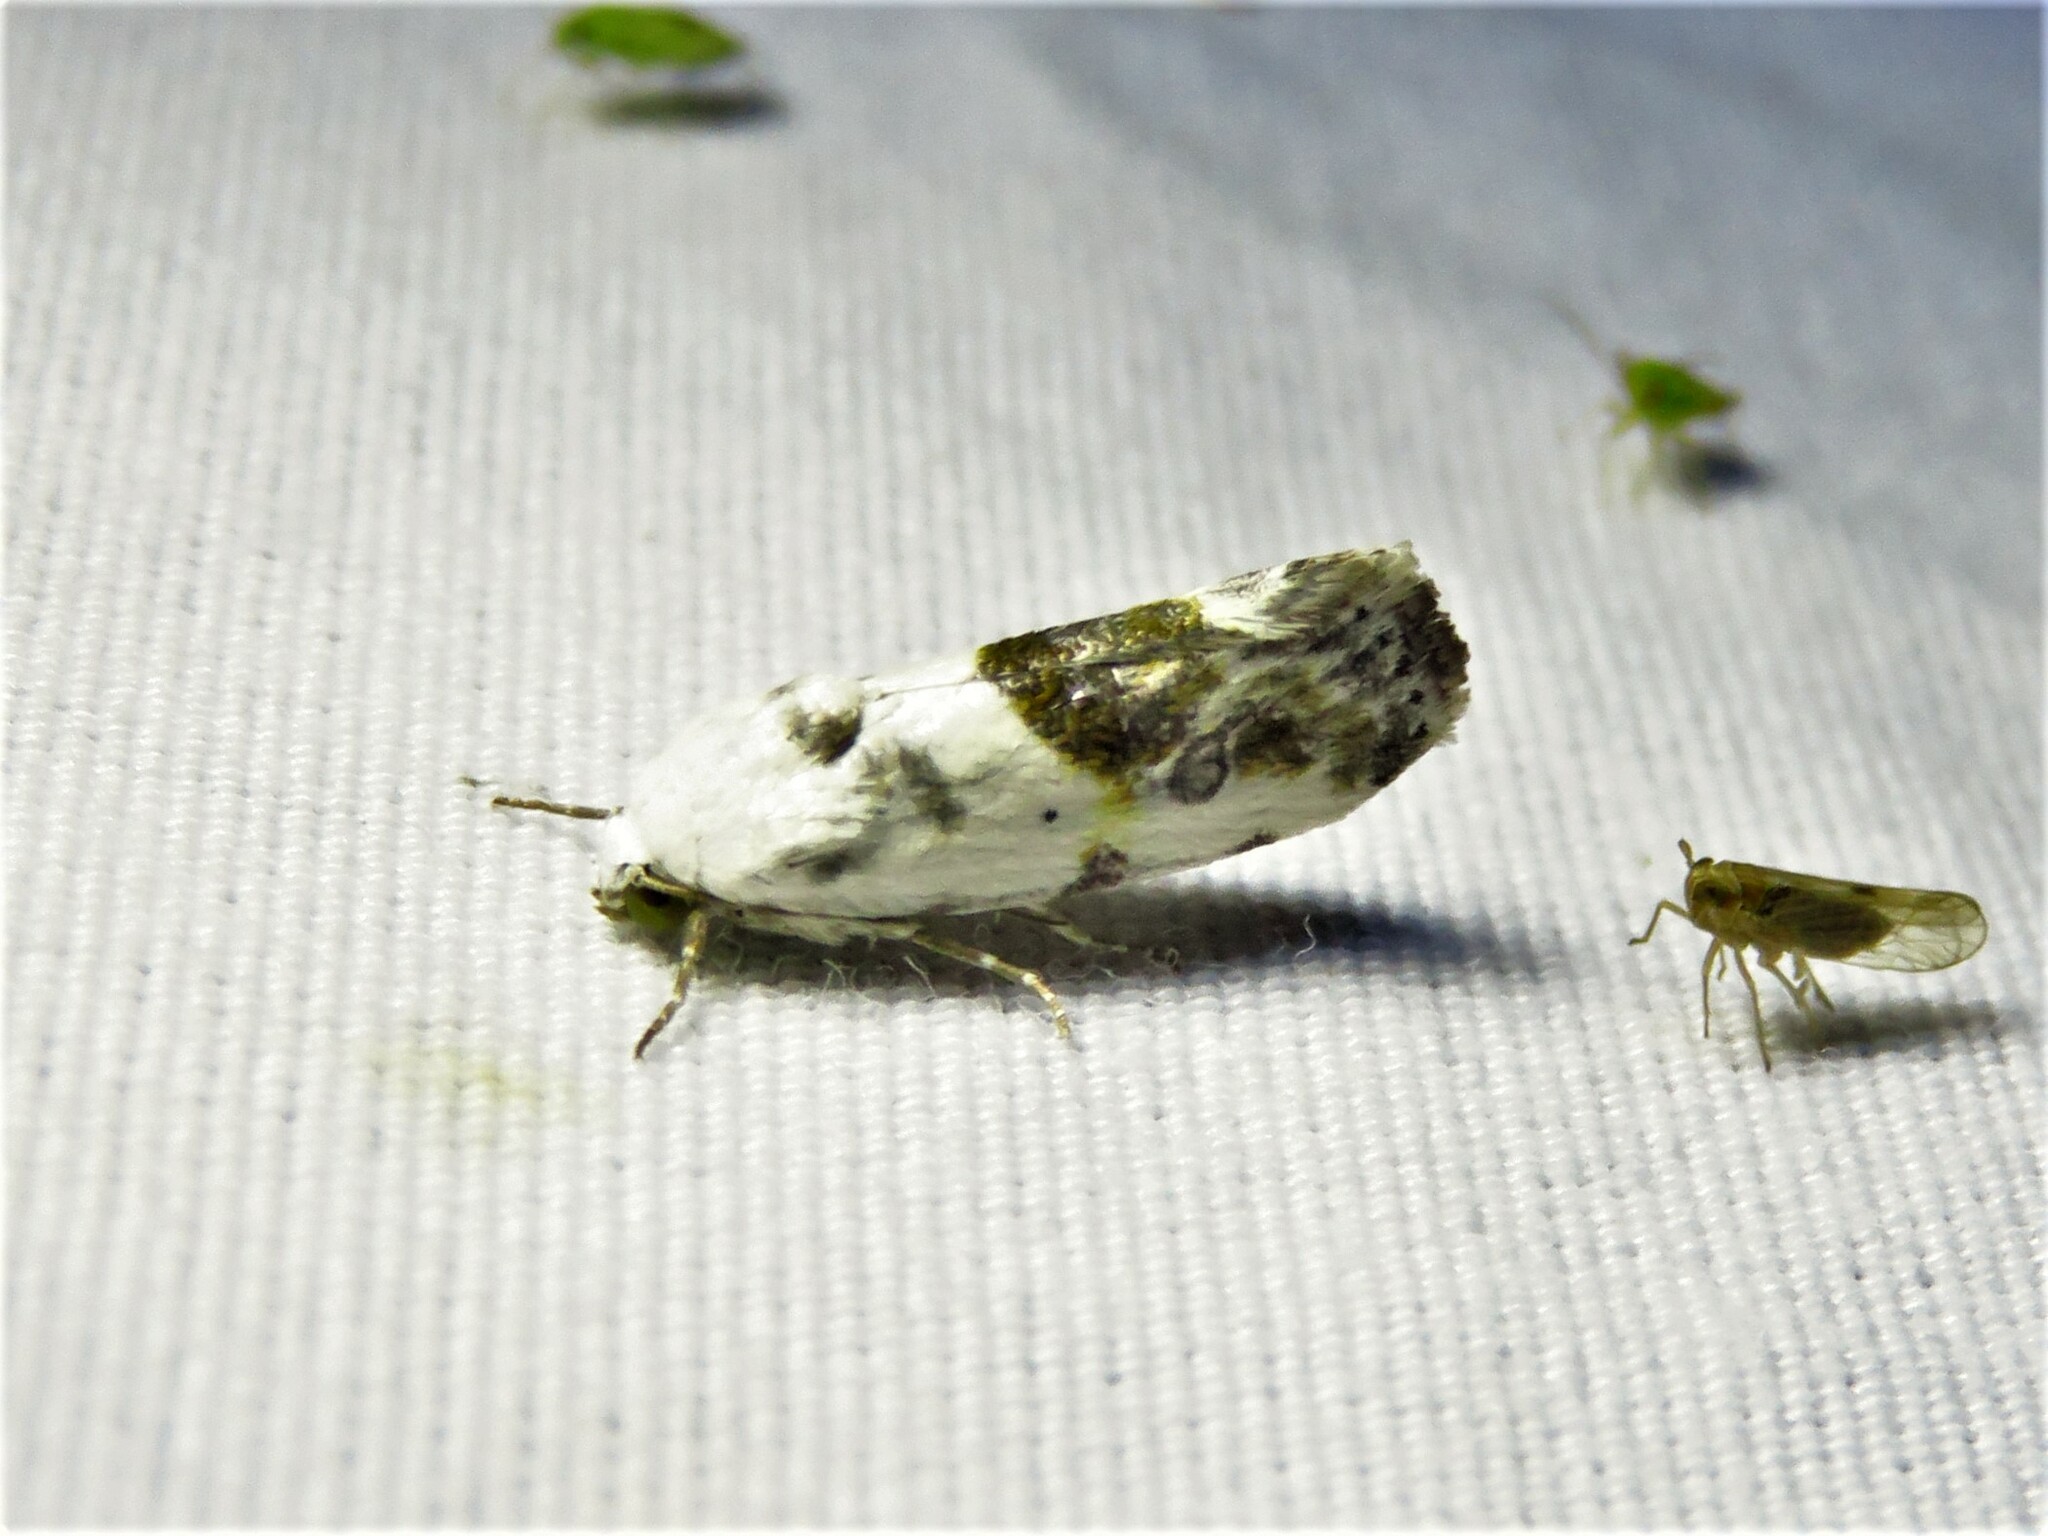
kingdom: Animalia
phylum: Arthropoda
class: Insecta
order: Lepidoptera
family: Noctuidae
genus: Acontia
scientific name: Acontia candefacta
